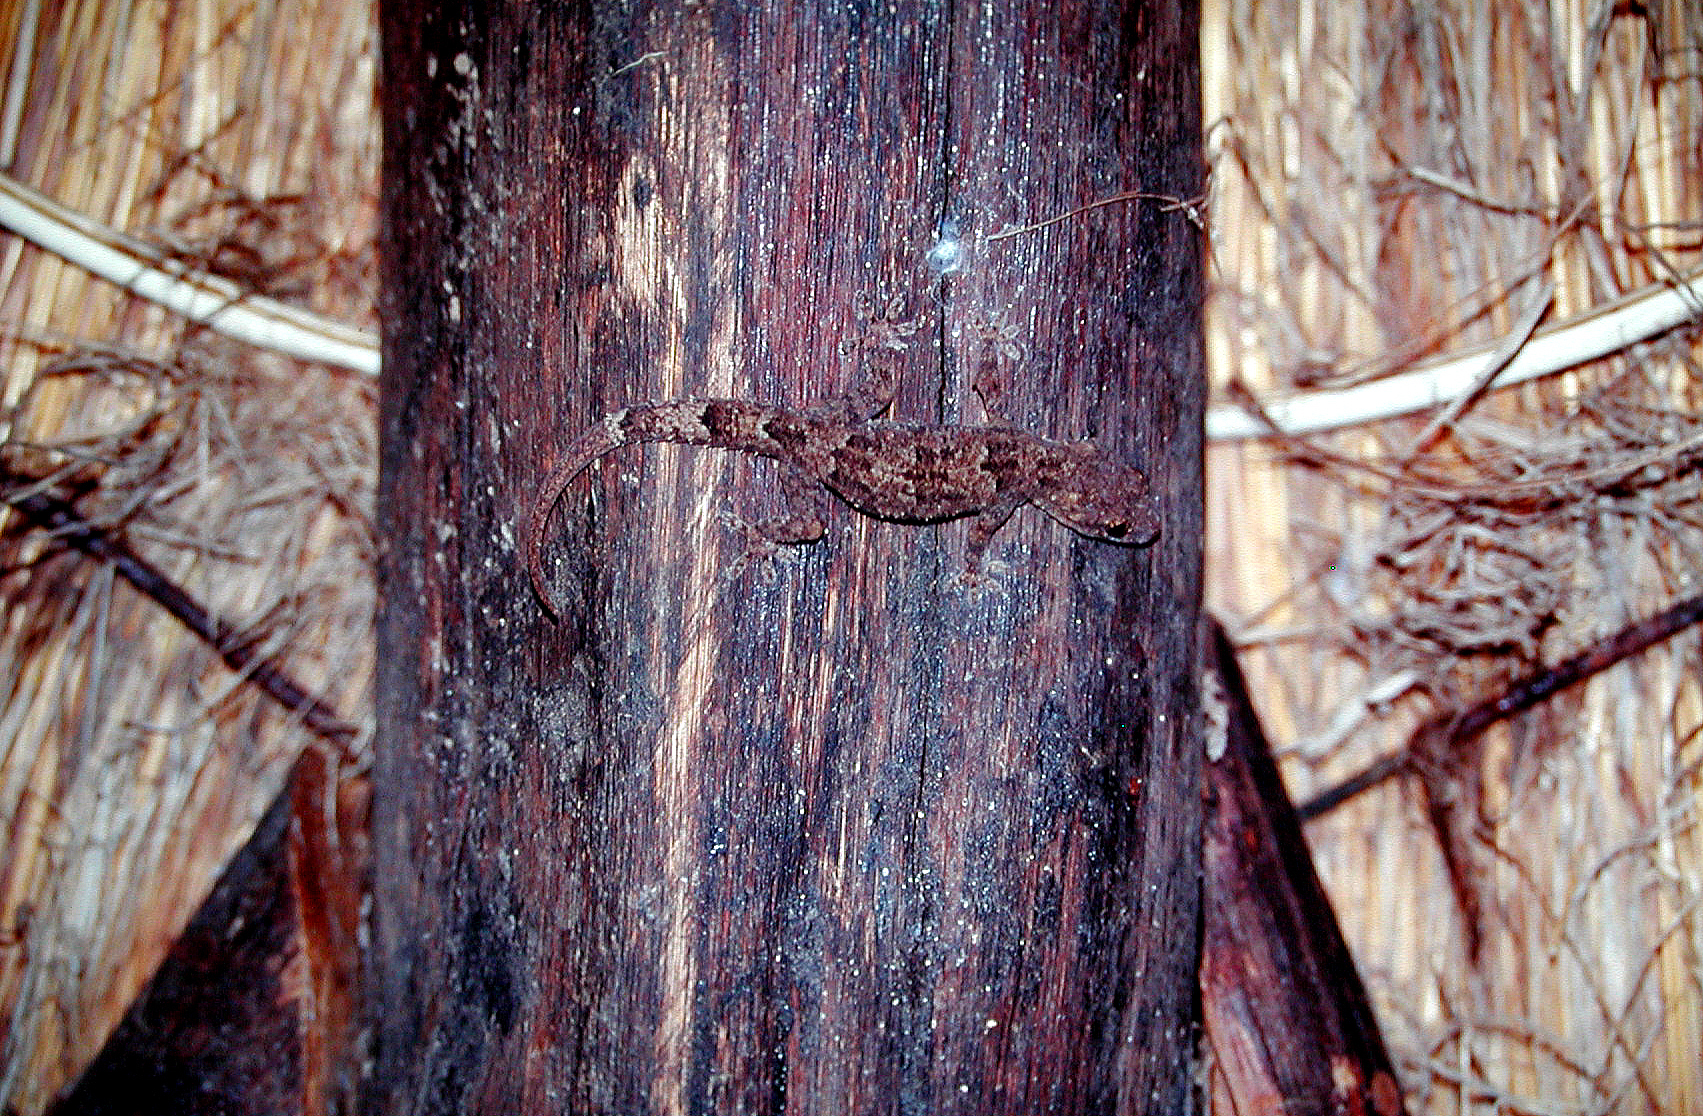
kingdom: Animalia
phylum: Chordata
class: Squamata
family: Gekkonidae
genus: Hemidactylus
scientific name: Hemidactylus mabouia
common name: House gecko
